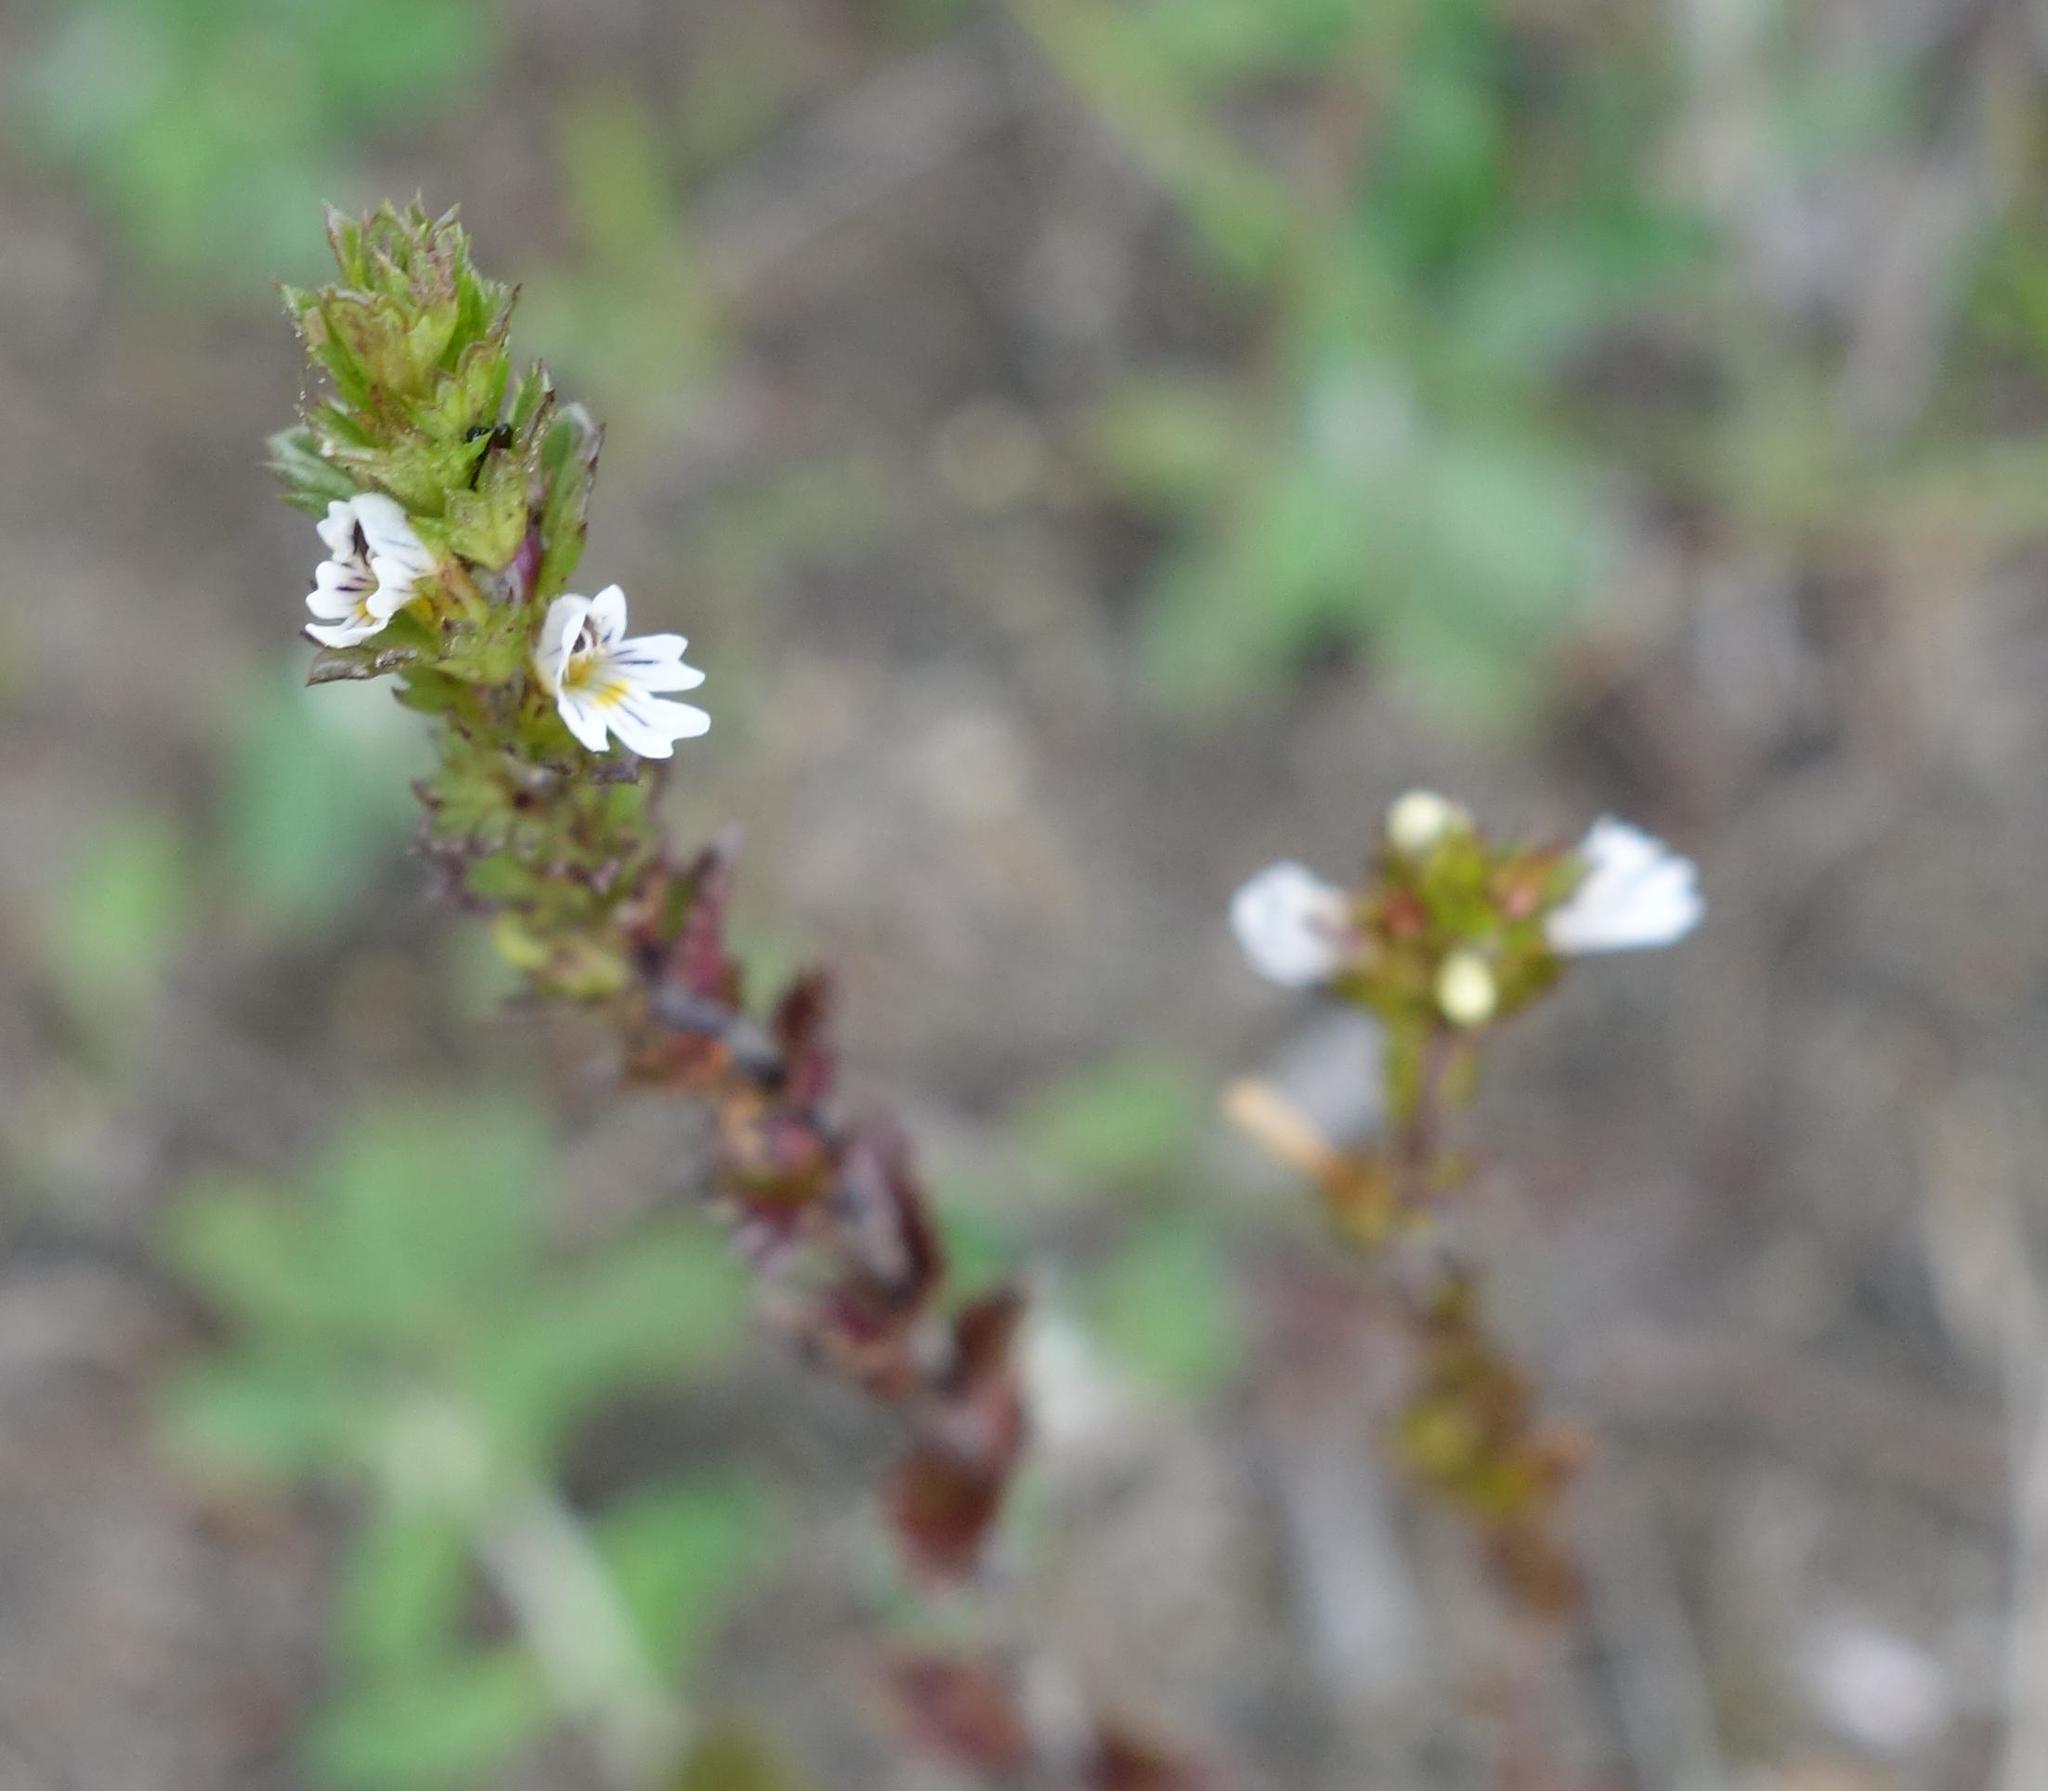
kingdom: Plantae
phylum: Tracheophyta
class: Magnoliopsida
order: Lamiales
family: Orobanchaceae
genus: Euphrasia
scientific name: Euphrasia nemorosa
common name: Common eyebright
